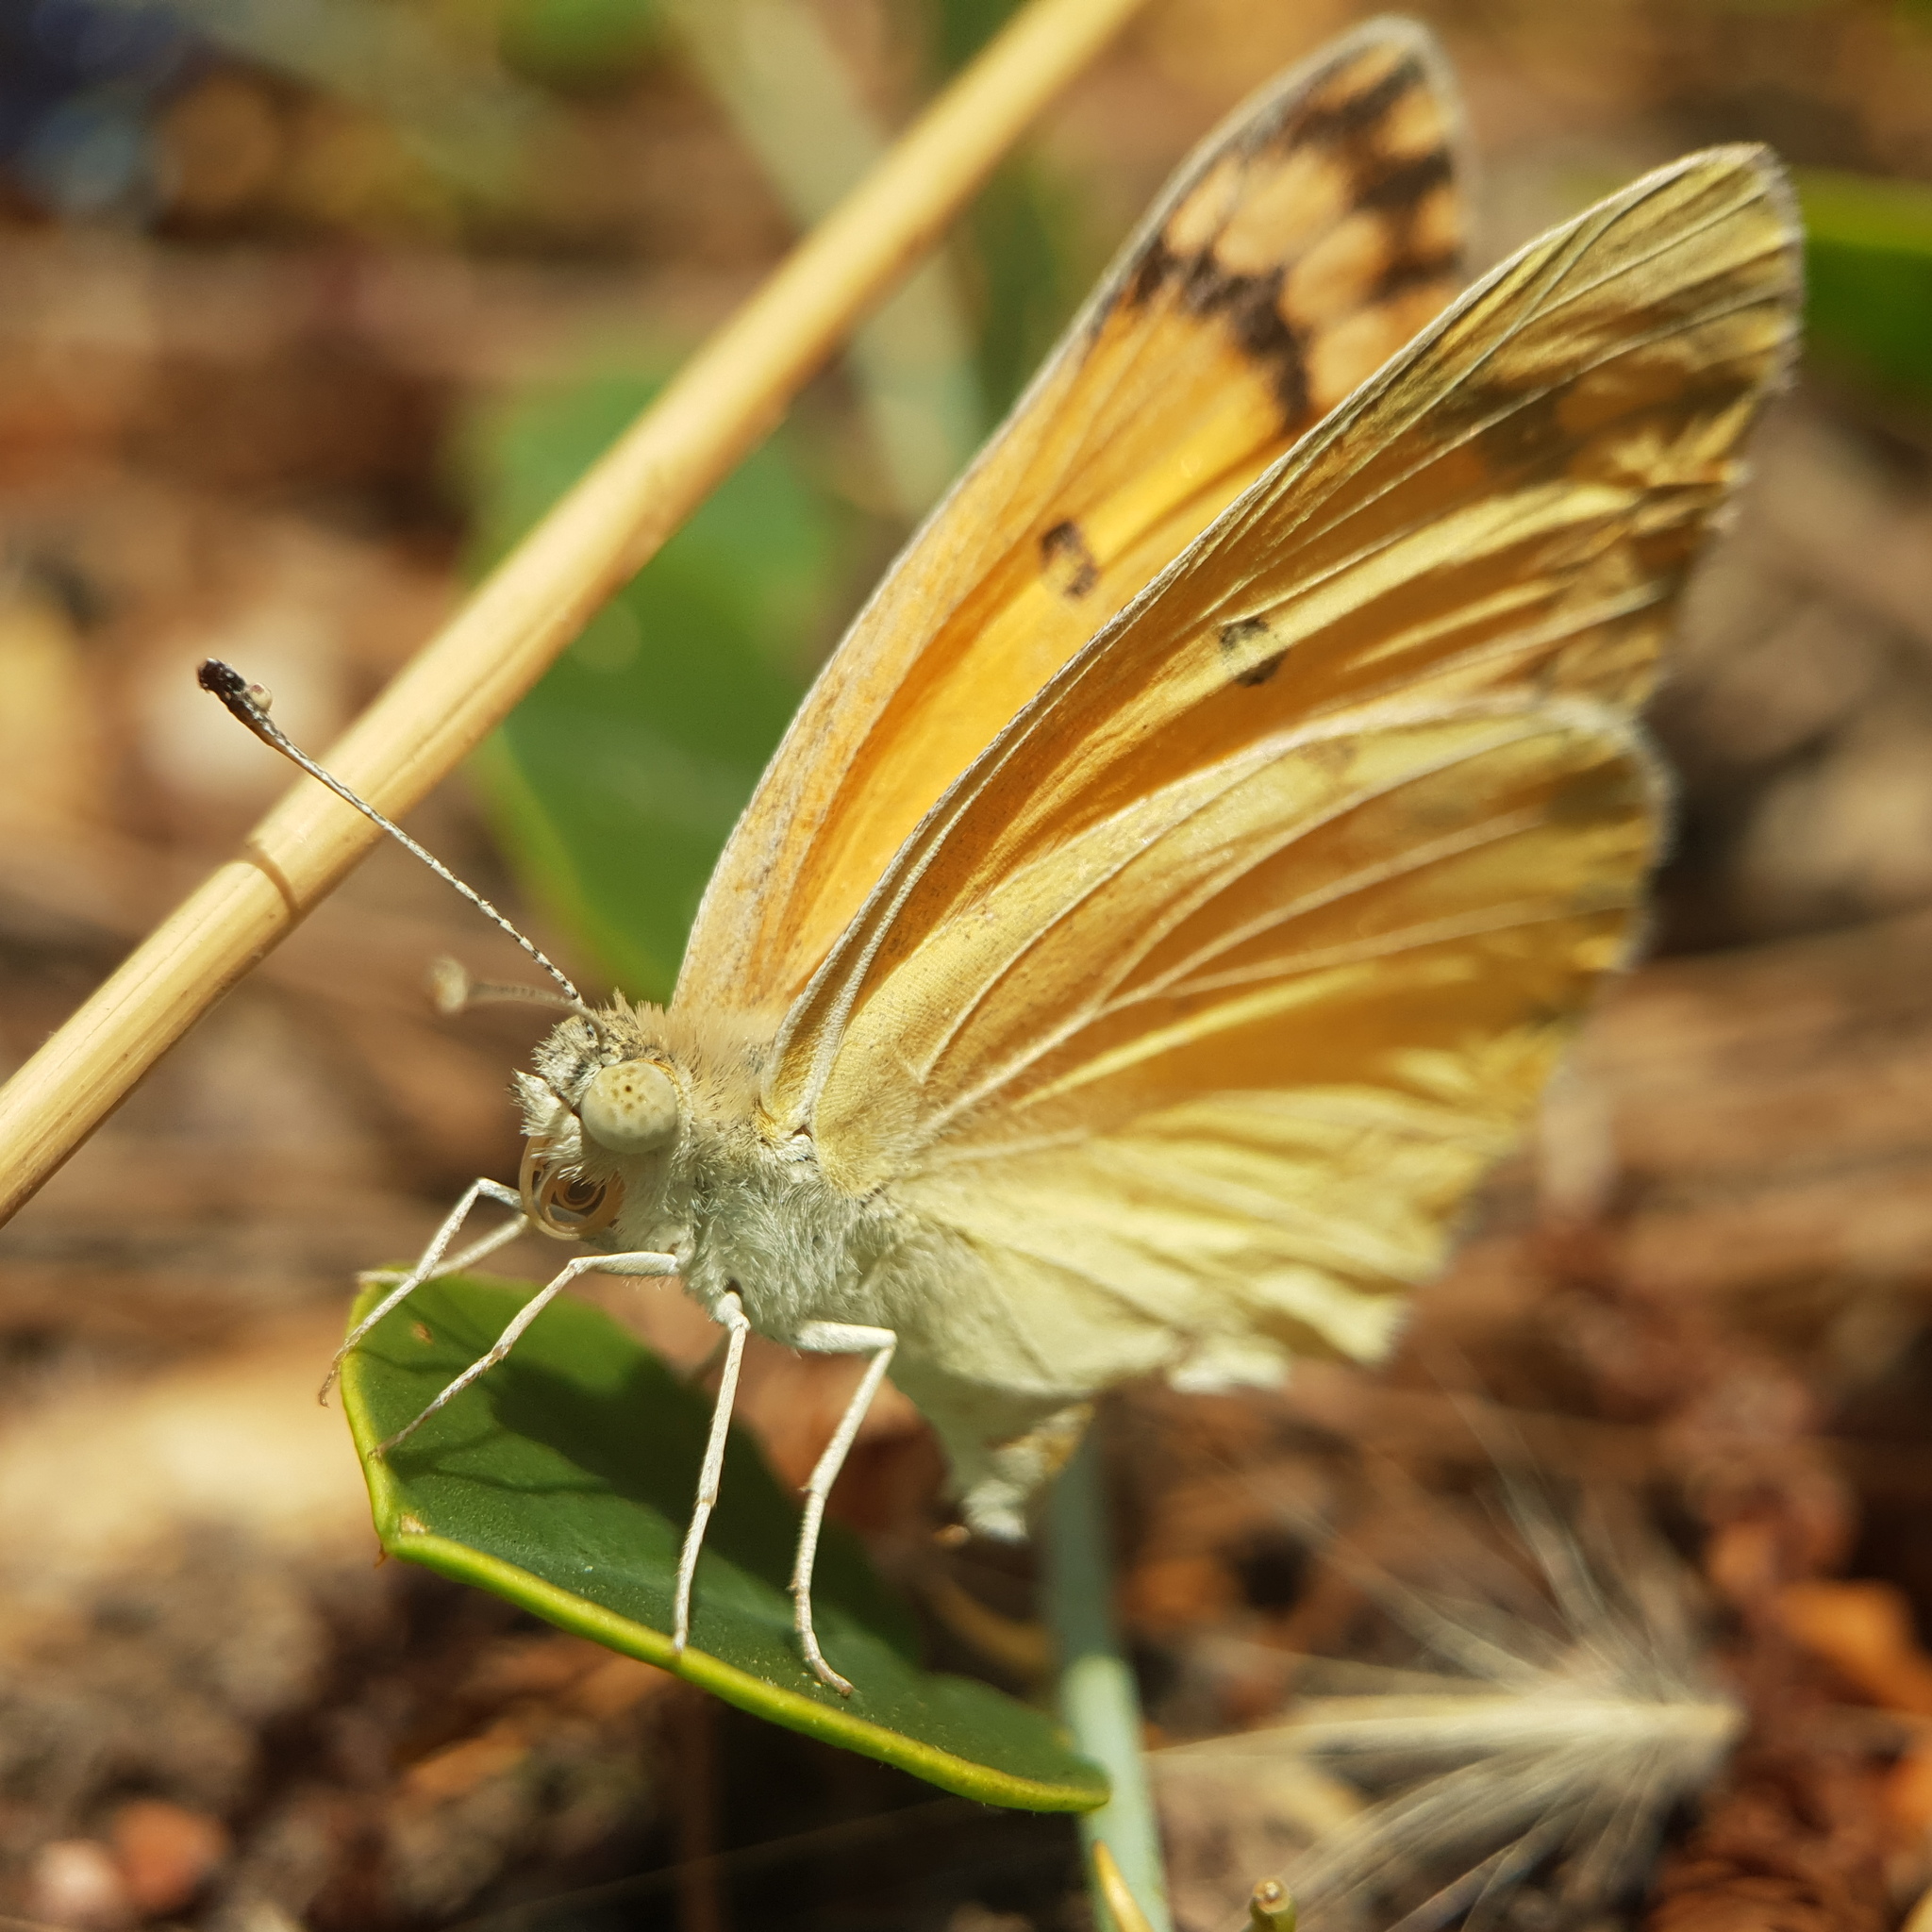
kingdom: Animalia
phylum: Arthropoda
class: Insecta
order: Lepidoptera
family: Pieridae
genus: Colotis
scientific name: Colotis fausta
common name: Large salmon arab
